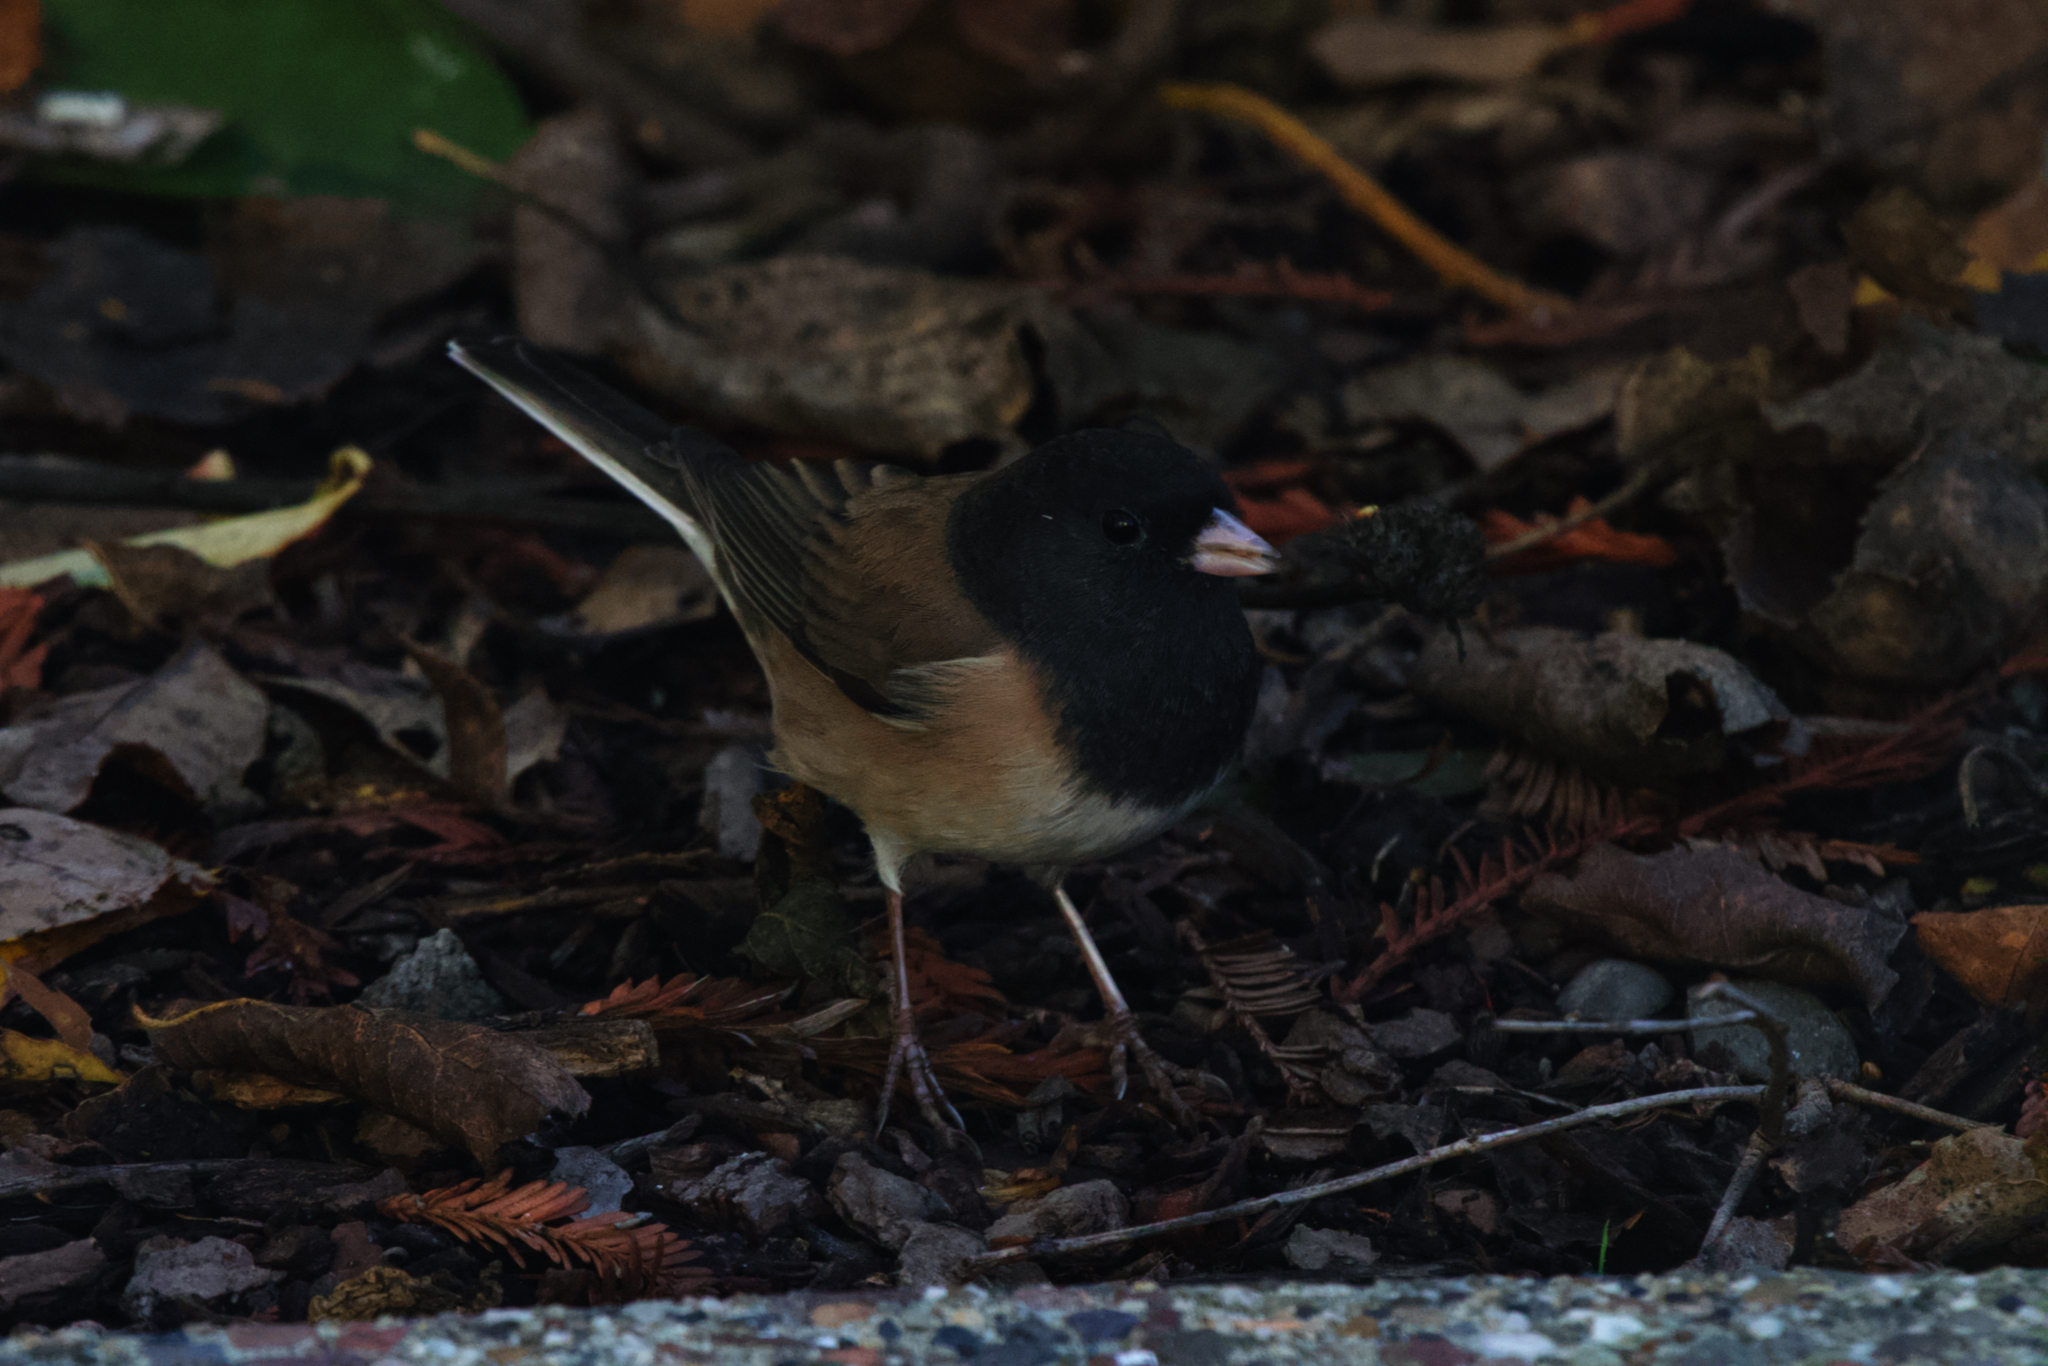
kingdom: Animalia
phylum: Chordata
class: Aves
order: Passeriformes
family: Passerellidae
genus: Junco
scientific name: Junco hyemalis
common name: Dark-eyed junco
